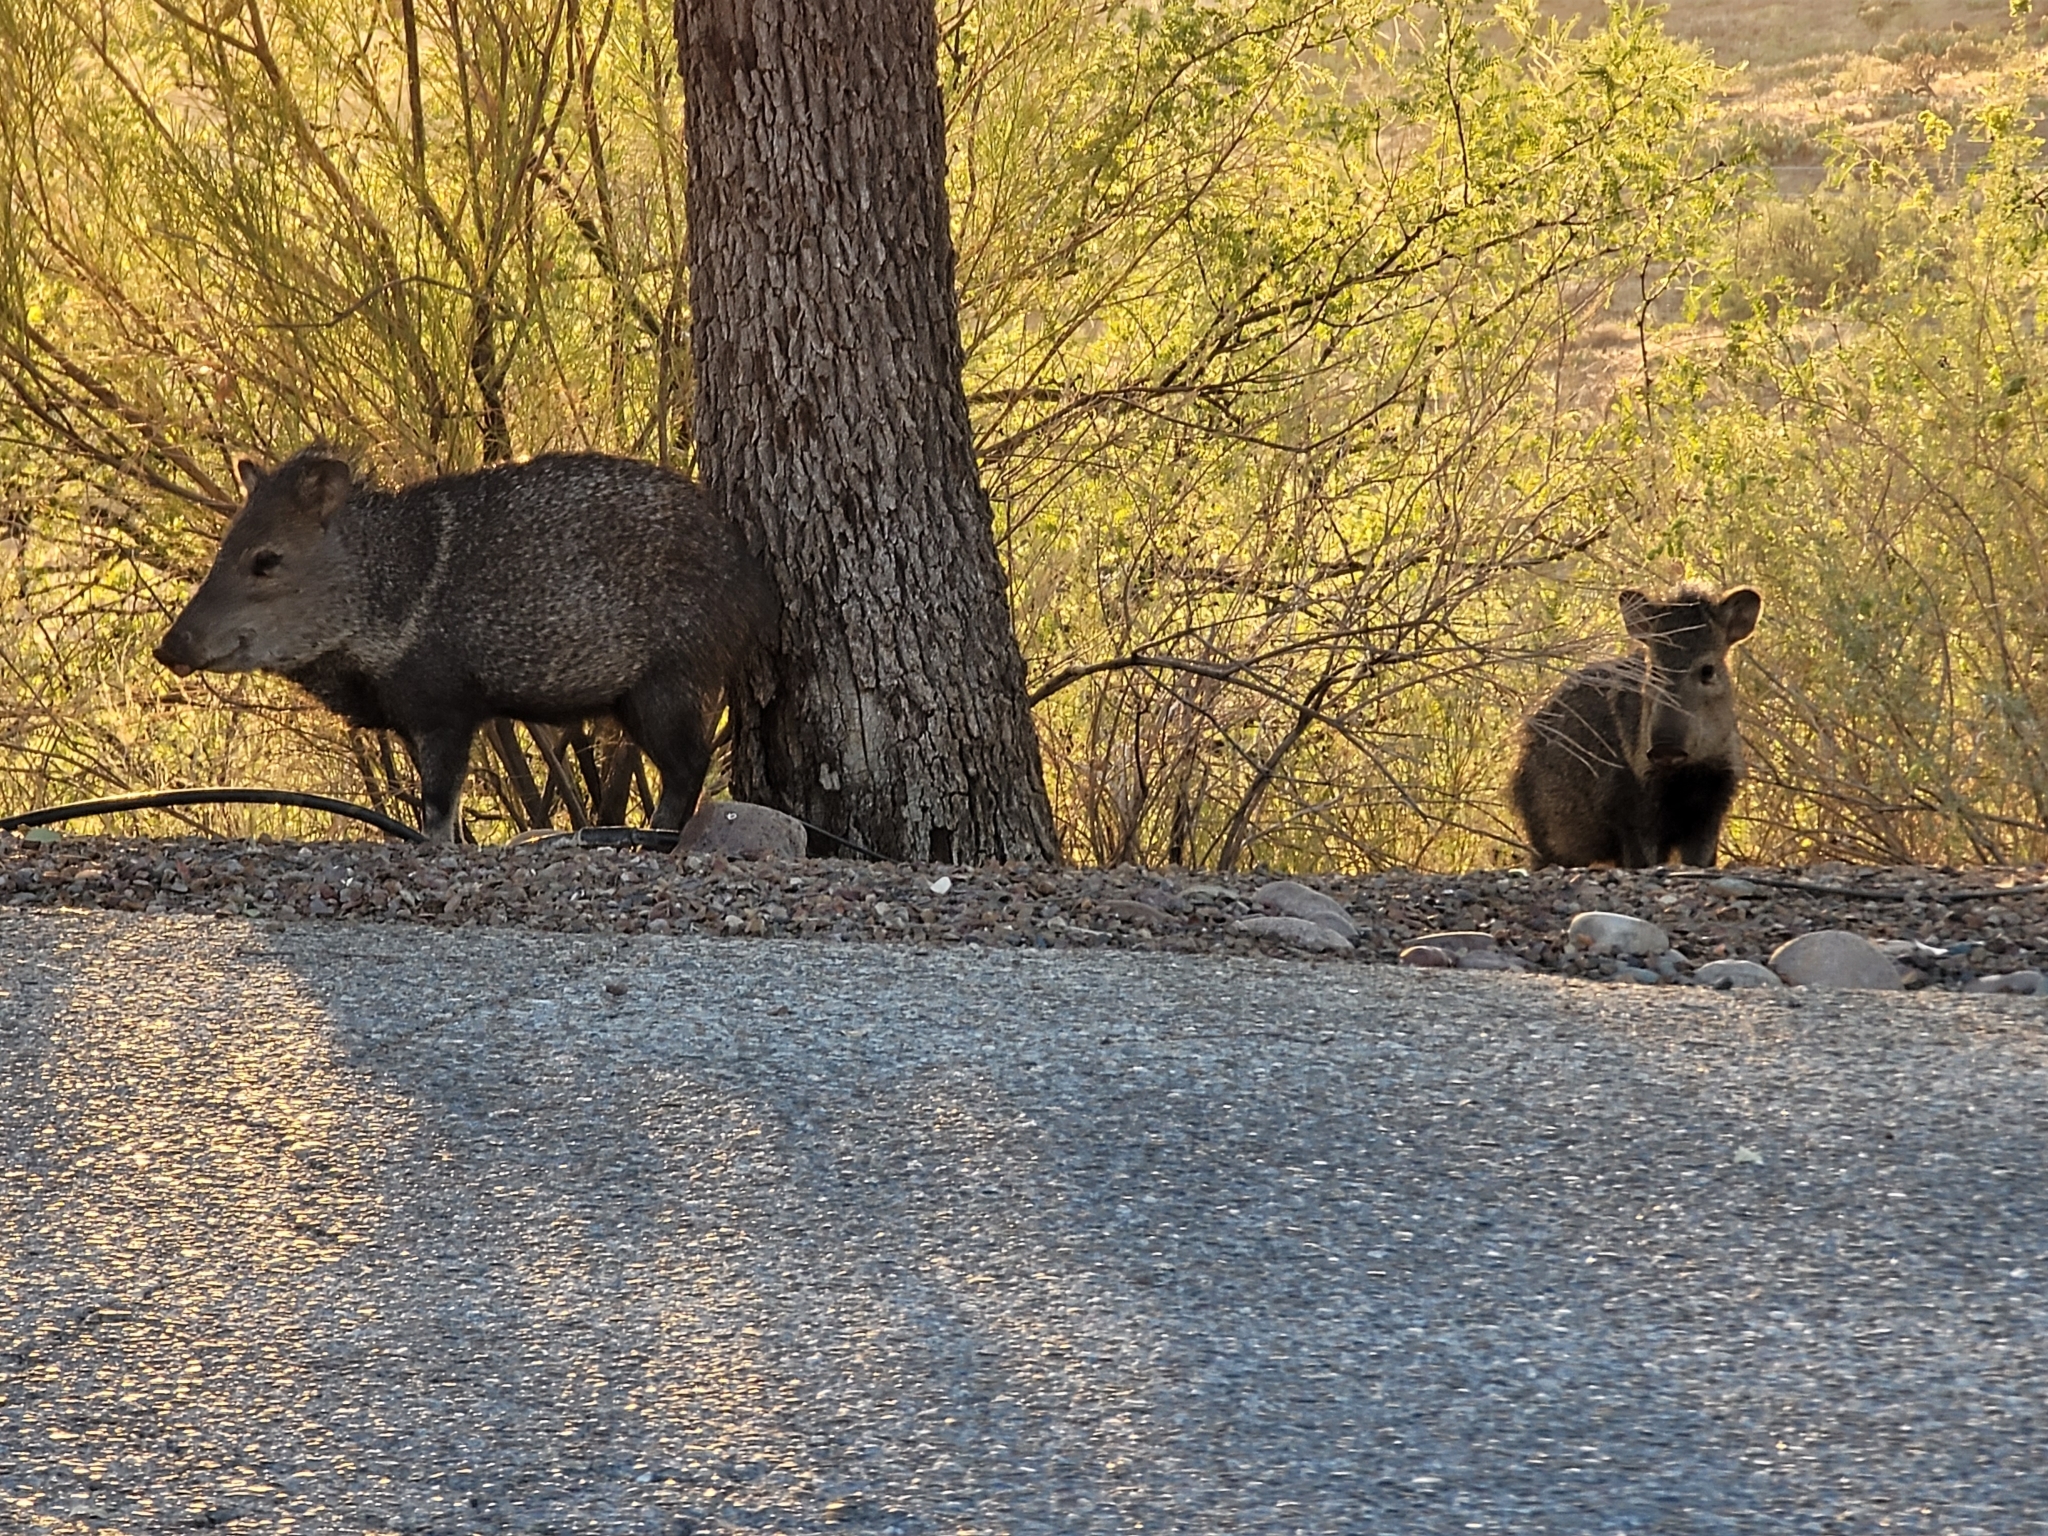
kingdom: Animalia
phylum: Chordata
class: Mammalia
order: Artiodactyla
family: Tayassuidae
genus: Pecari
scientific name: Pecari tajacu
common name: Collared peccary
